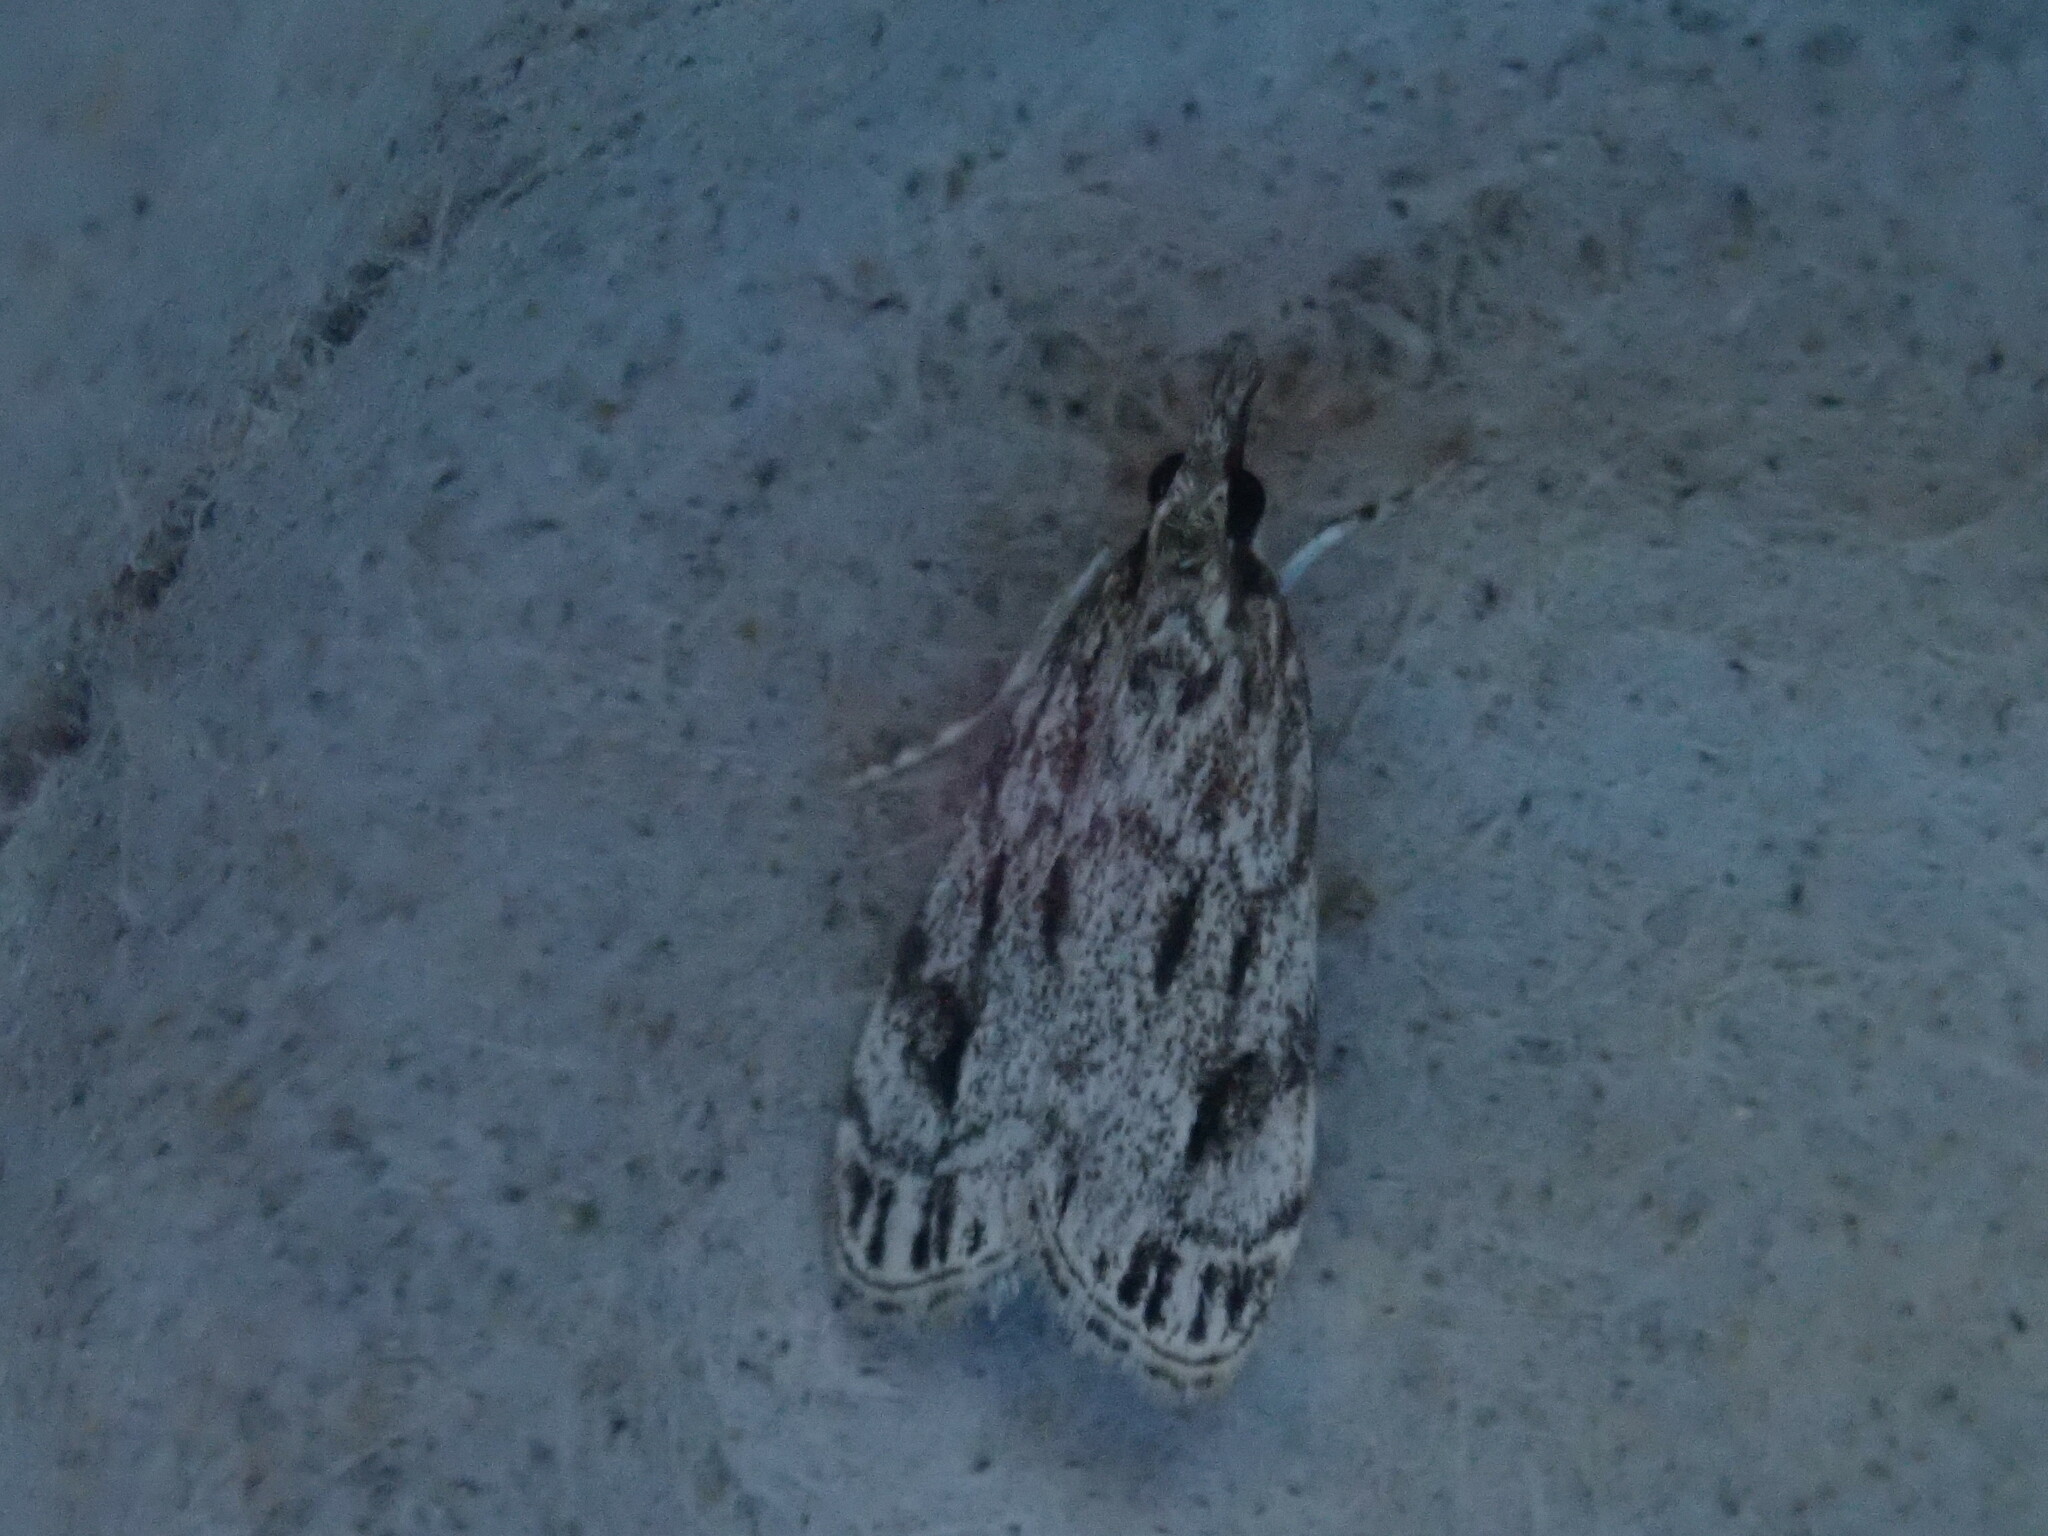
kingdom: Animalia
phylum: Arthropoda
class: Insecta
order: Lepidoptera
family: Crambidae
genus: Eudonia
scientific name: Eudonia strigalis
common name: Striped eudonia moth
